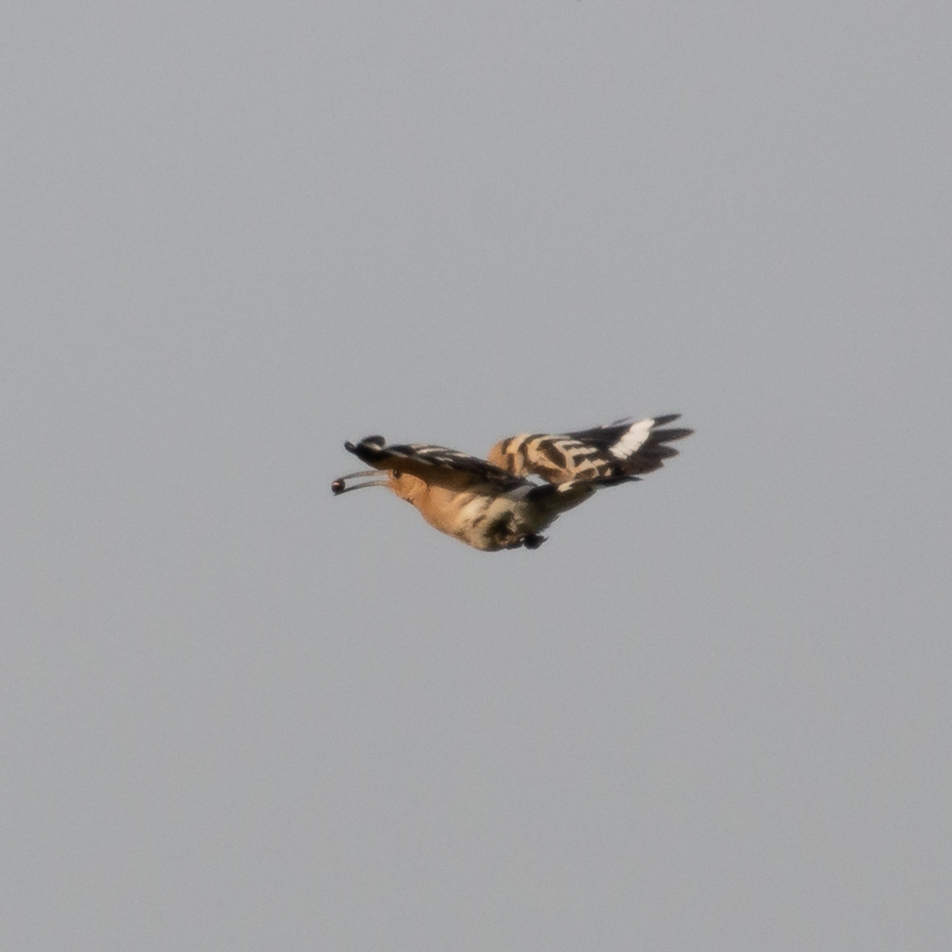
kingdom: Animalia
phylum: Chordata
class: Aves
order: Bucerotiformes
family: Upupidae
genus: Upupa
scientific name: Upupa epops
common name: Eurasian hoopoe
